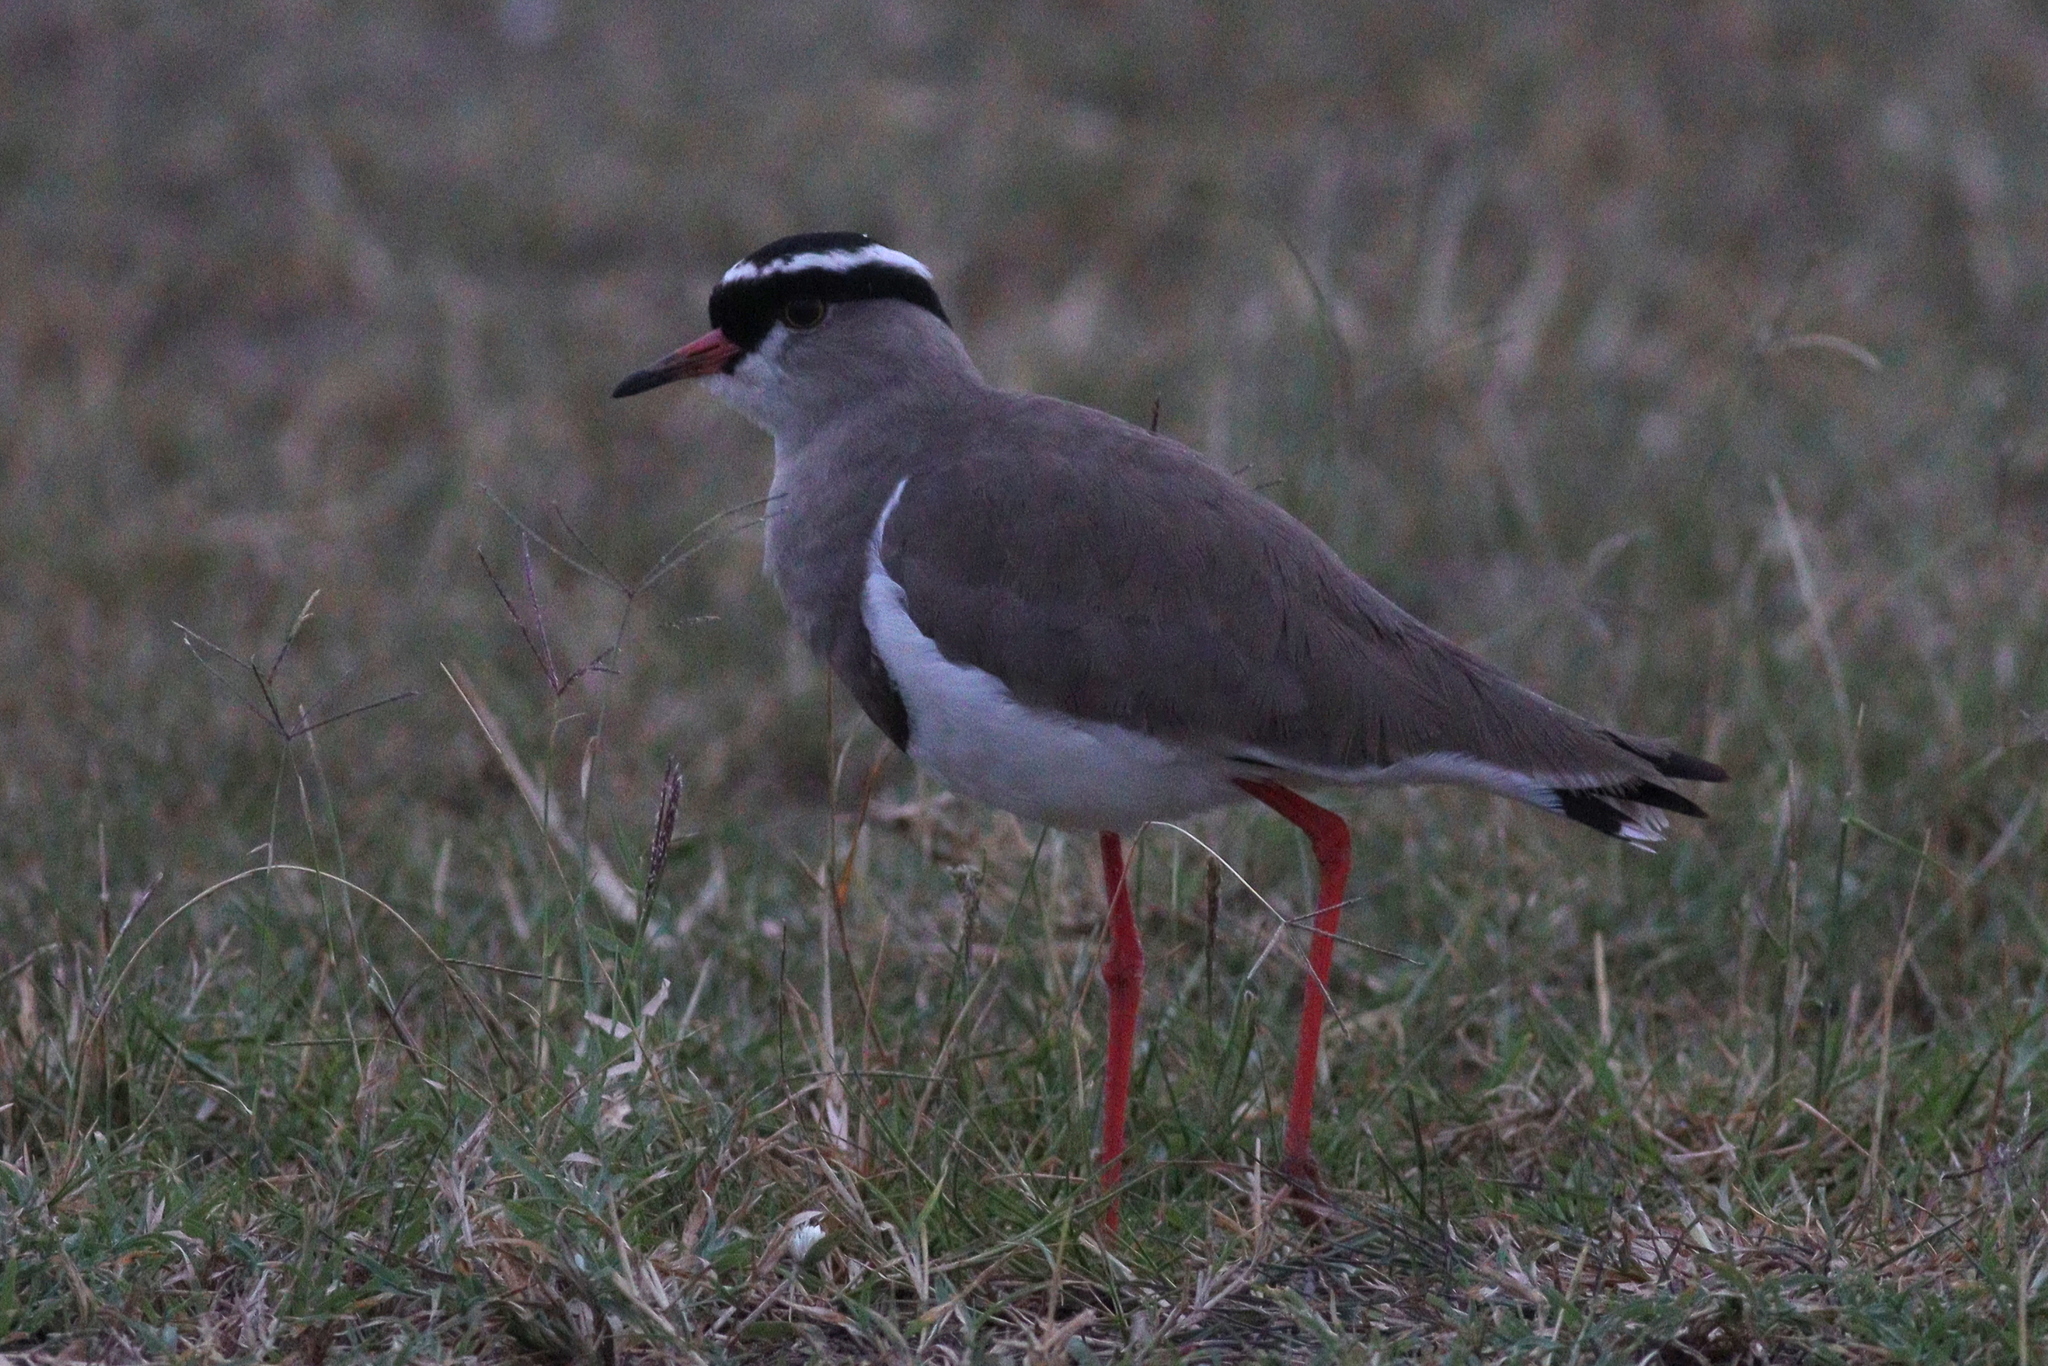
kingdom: Animalia
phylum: Chordata
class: Aves
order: Charadriiformes
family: Charadriidae
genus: Vanellus
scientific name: Vanellus coronatus
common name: Crowned lapwing
